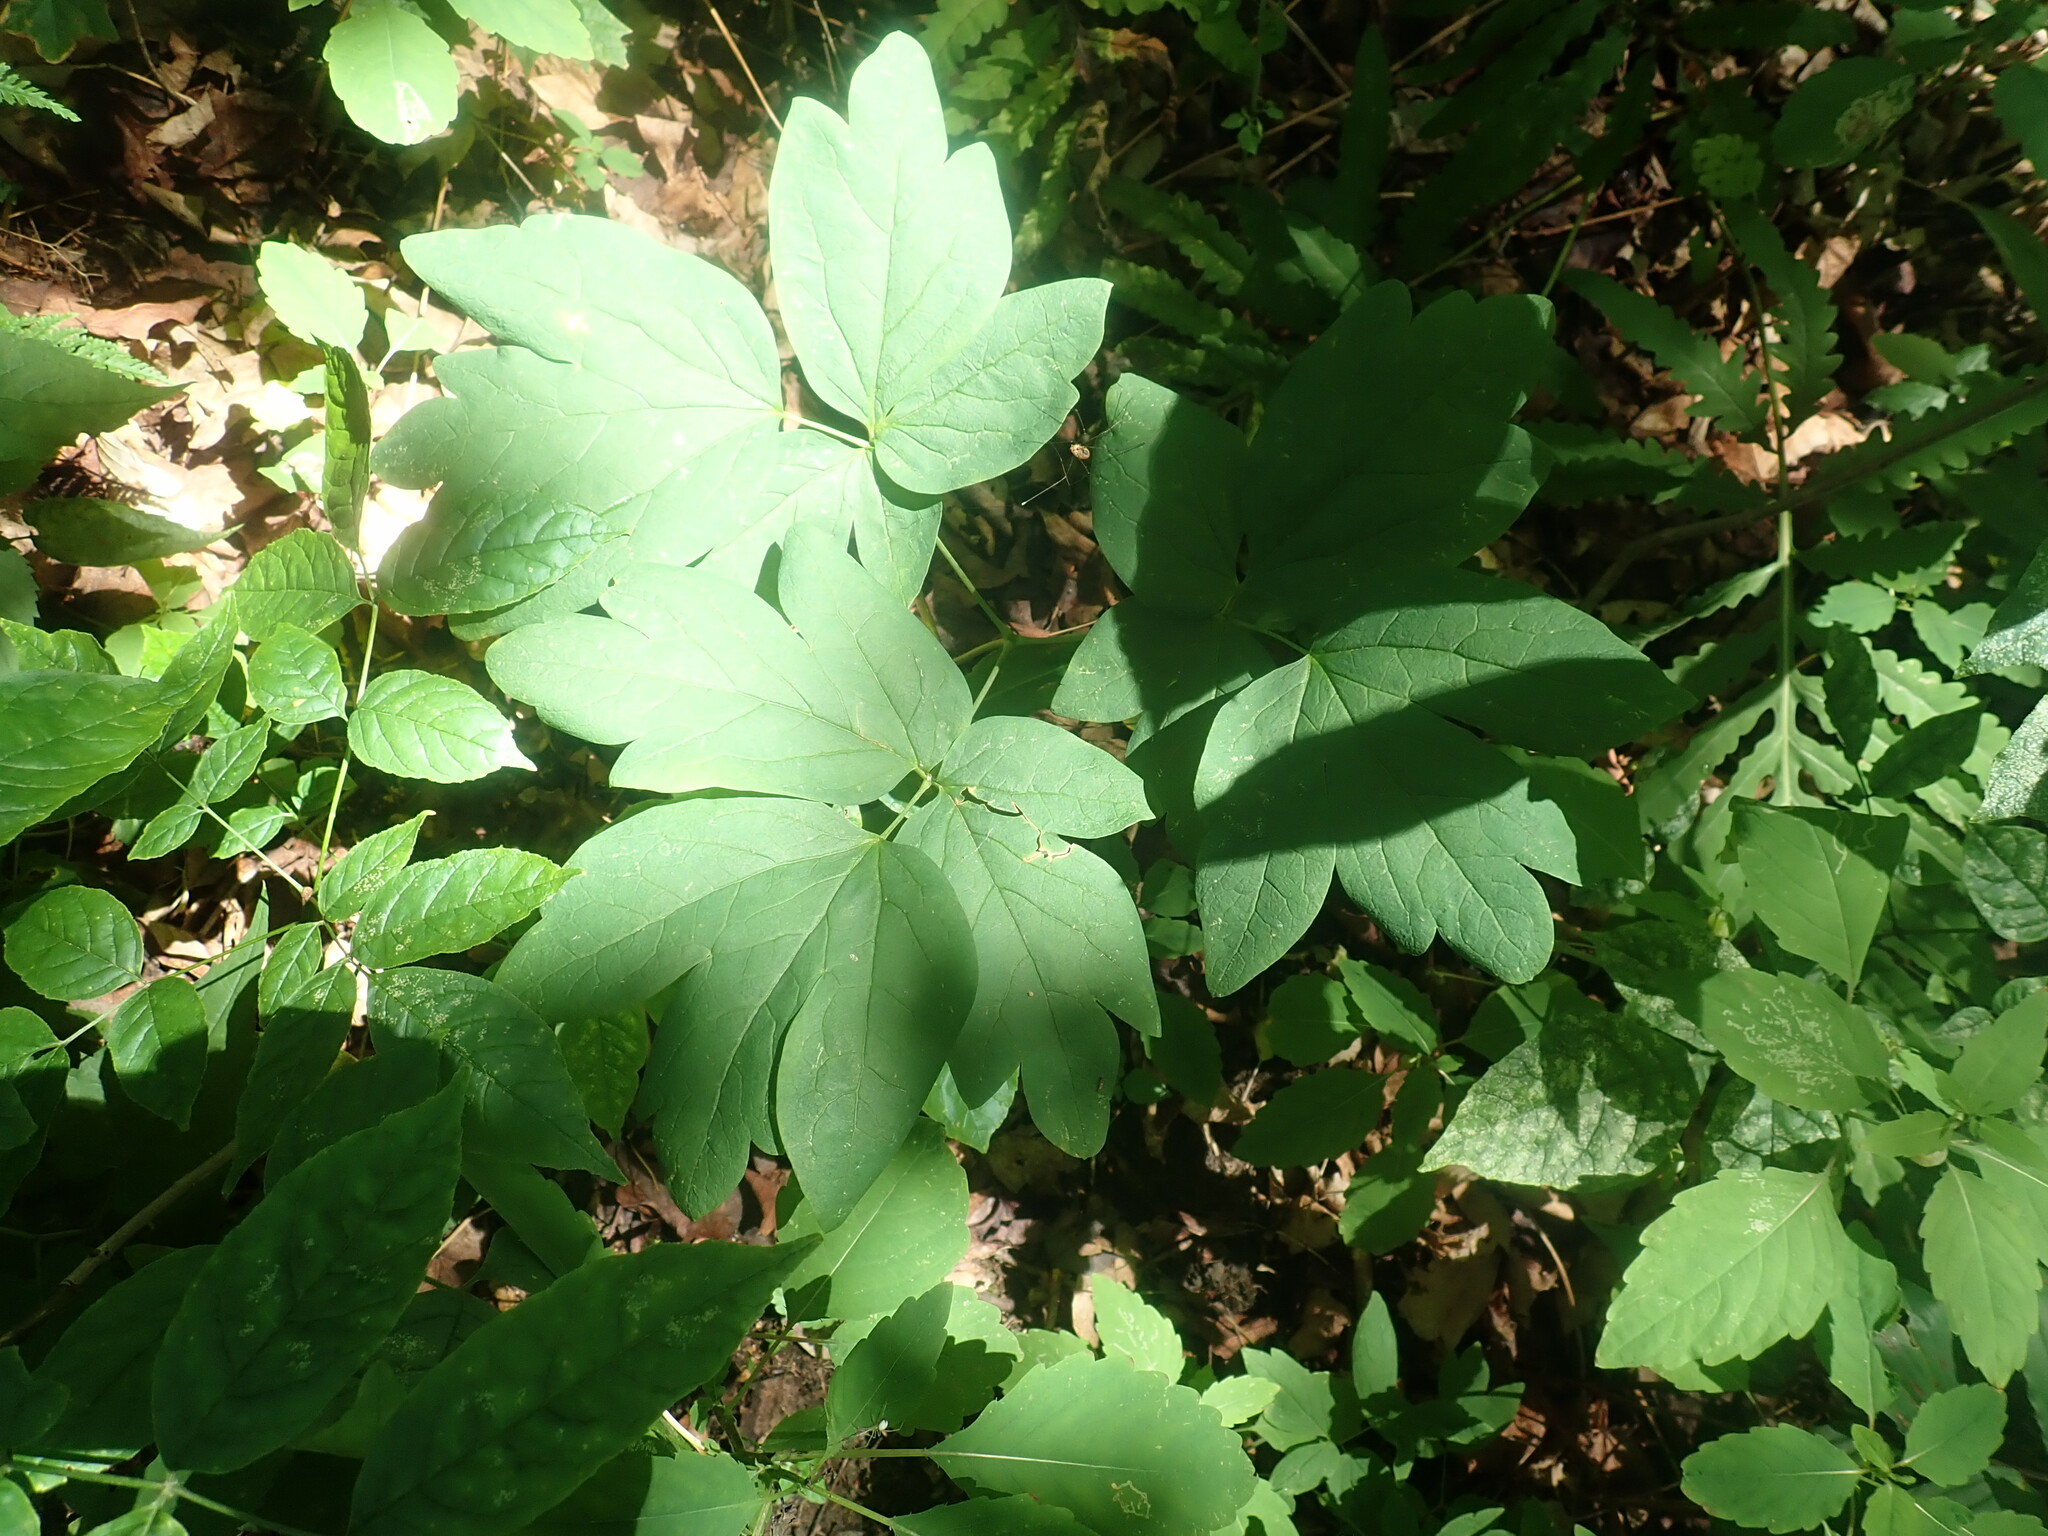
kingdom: Plantae
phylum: Tracheophyta
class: Magnoliopsida
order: Ranunculales
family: Berberidaceae
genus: Caulophyllum
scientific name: Caulophyllum
